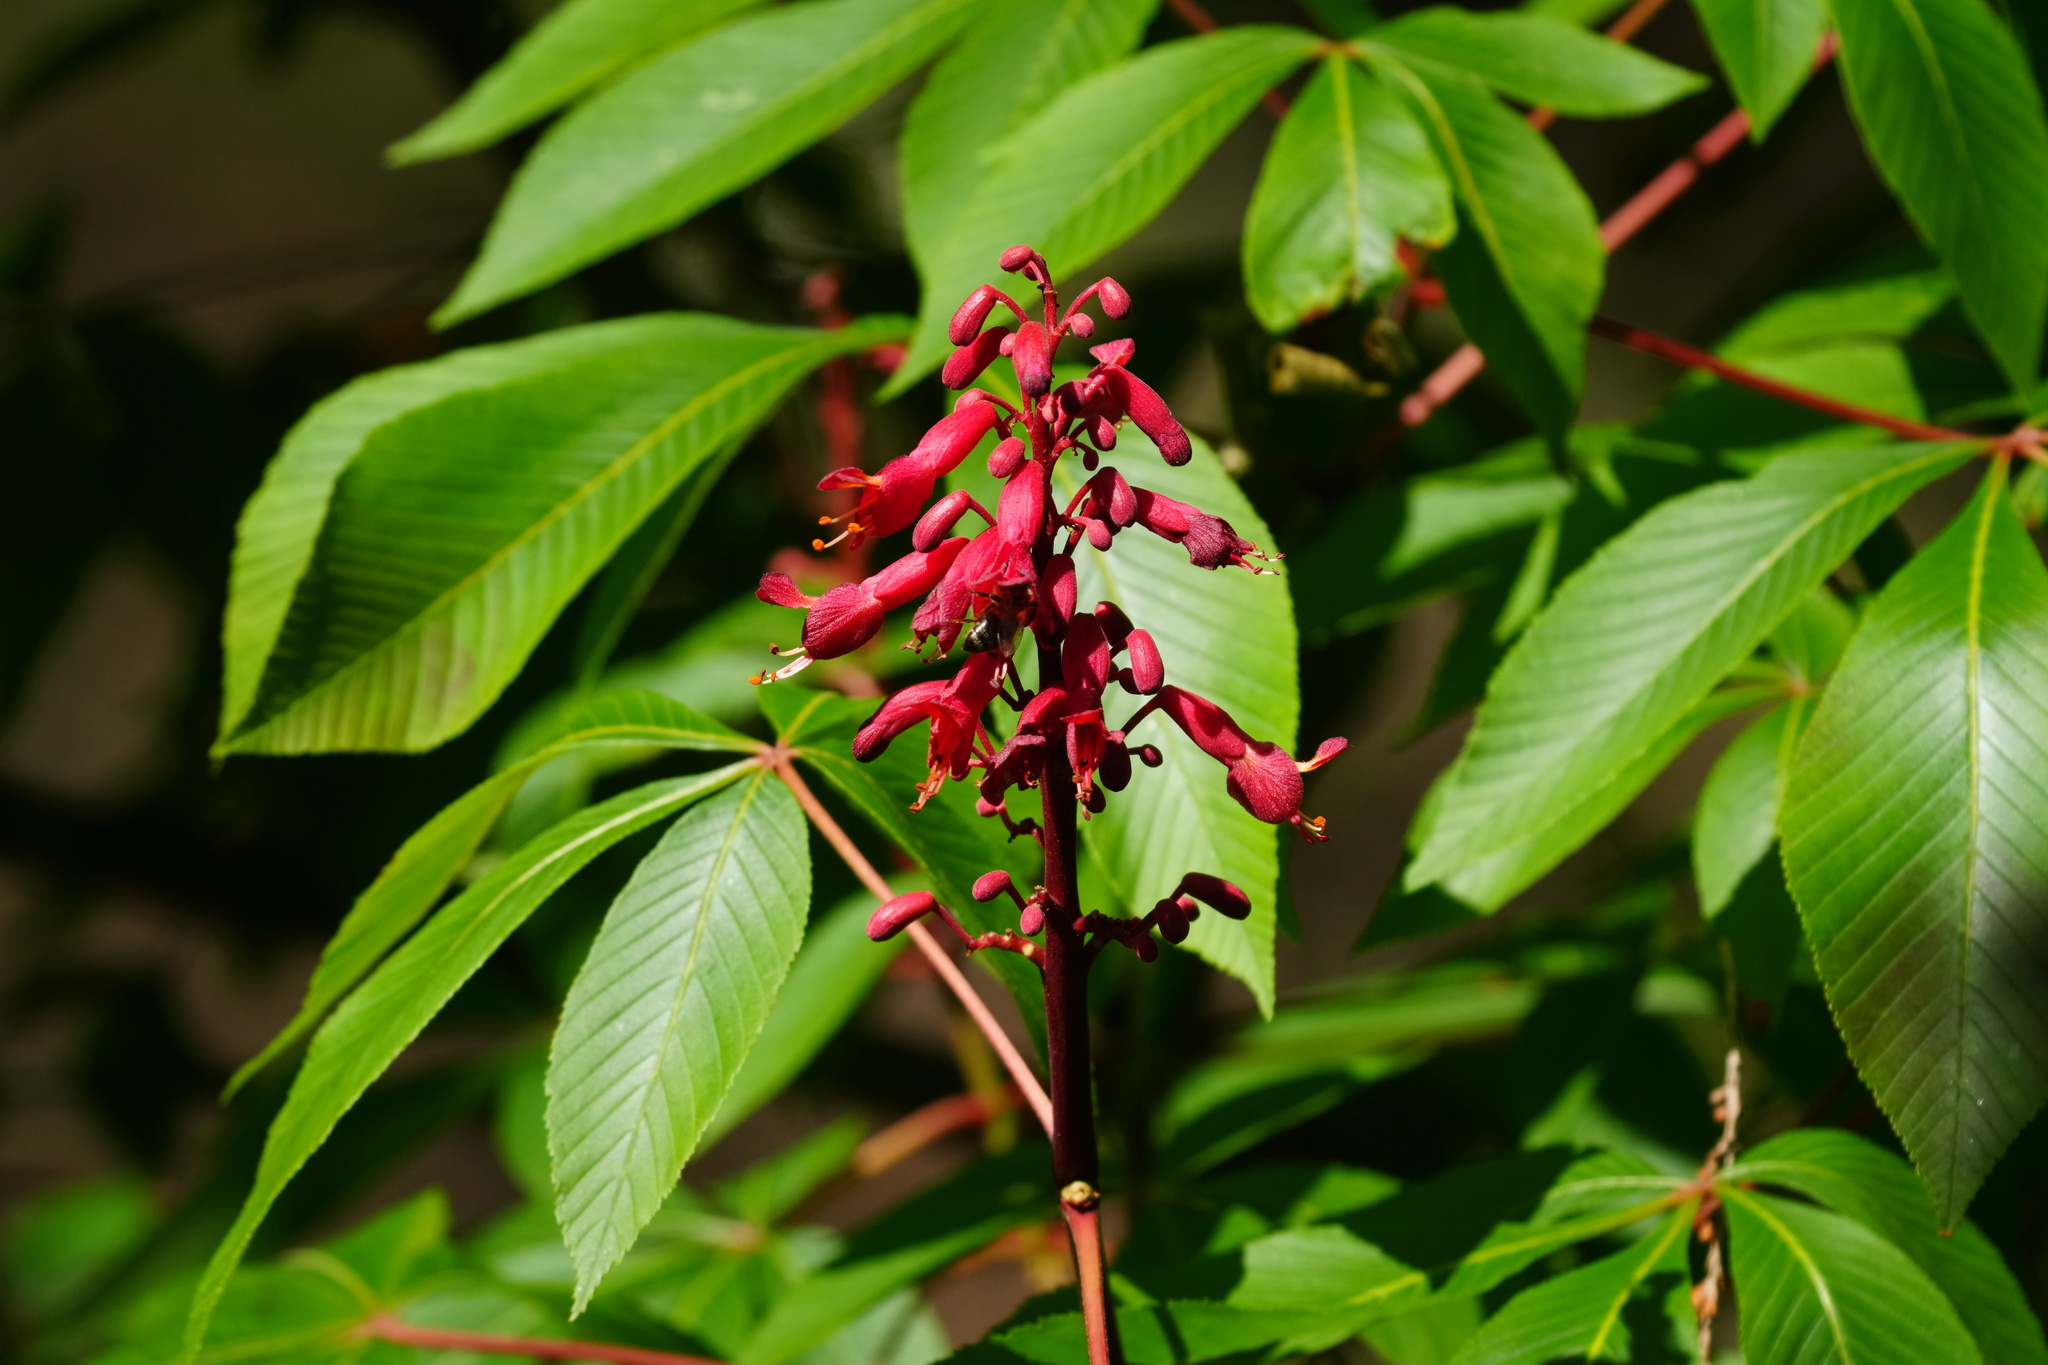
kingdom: Plantae
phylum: Tracheophyta
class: Magnoliopsida
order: Sapindales
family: Sapindaceae
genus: Aesculus
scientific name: Aesculus pavia
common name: Red buckeye
